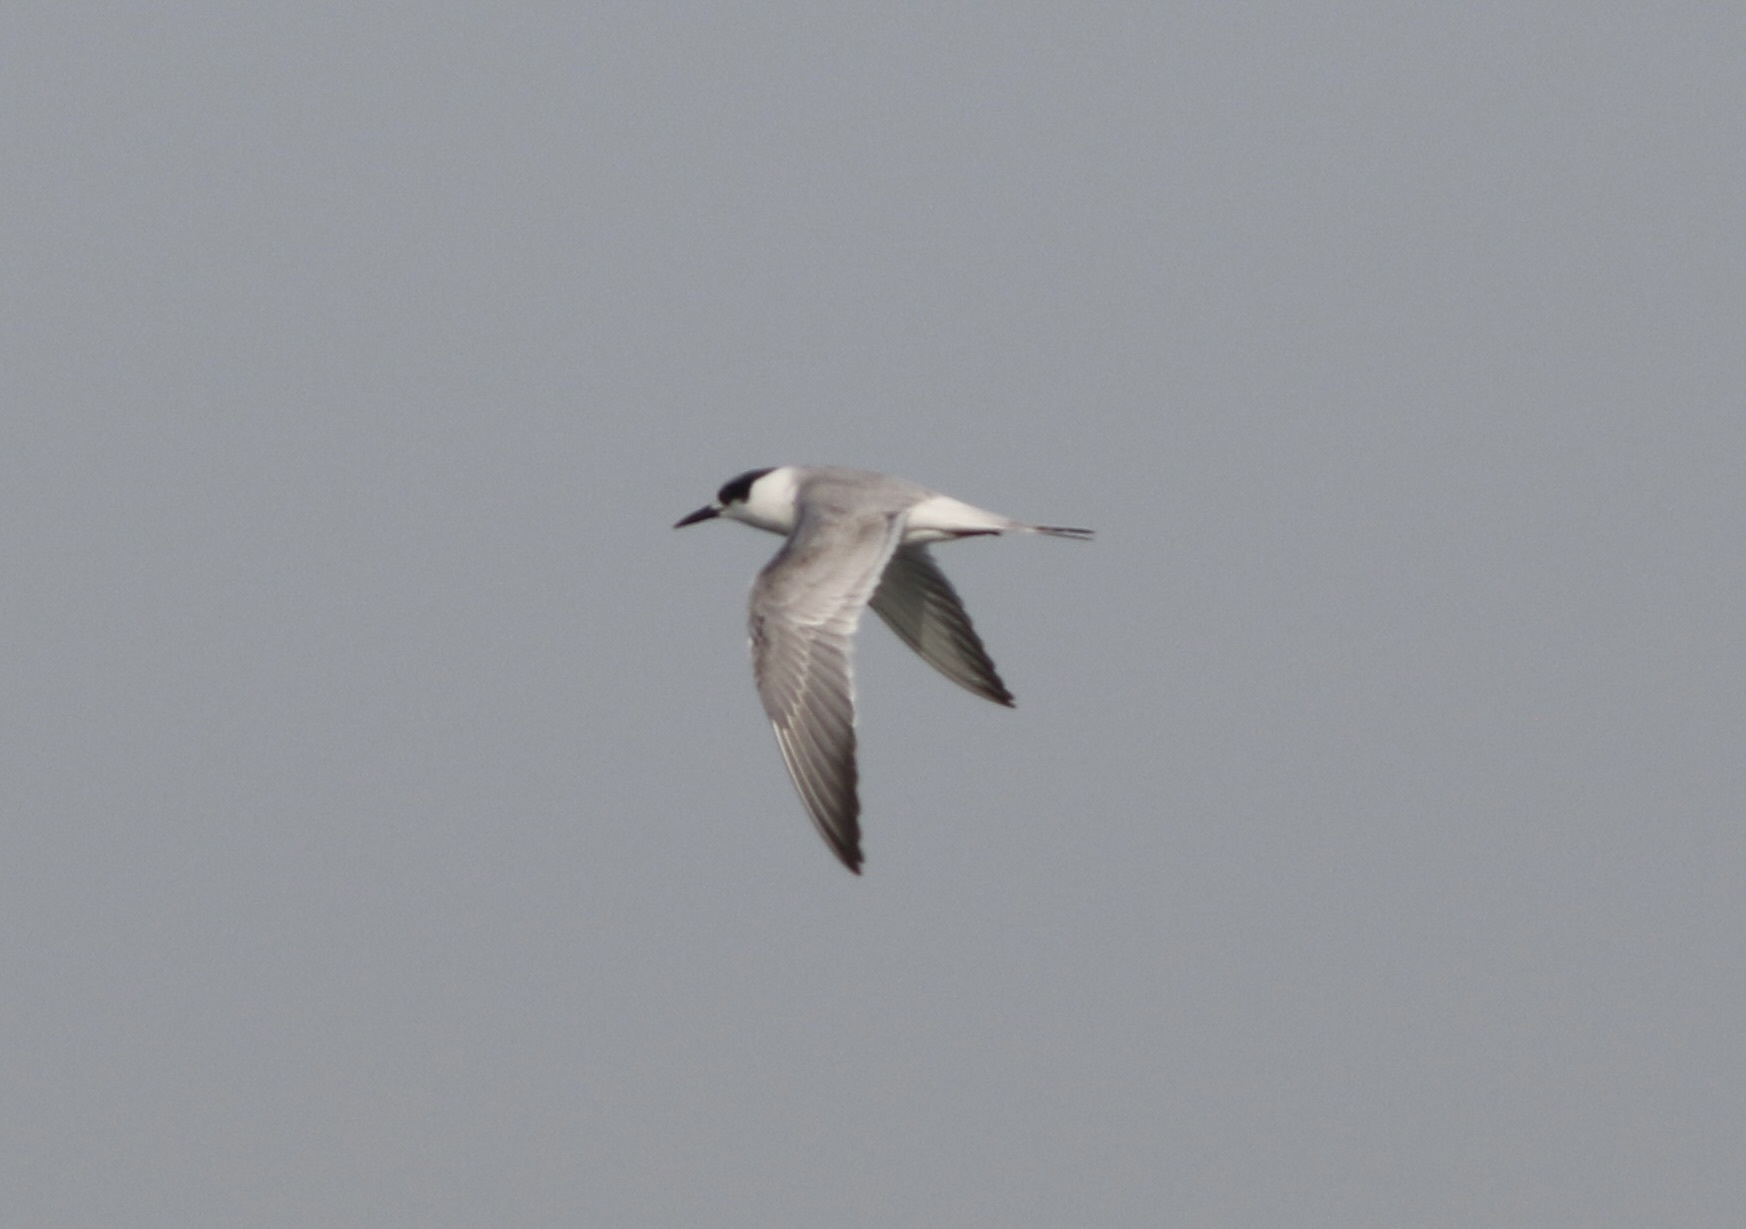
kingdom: Animalia
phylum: Chordata
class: Aves
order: Charadriiformes
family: Laridae
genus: Sterna
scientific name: Sterna forsteri
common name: Forster's tern
